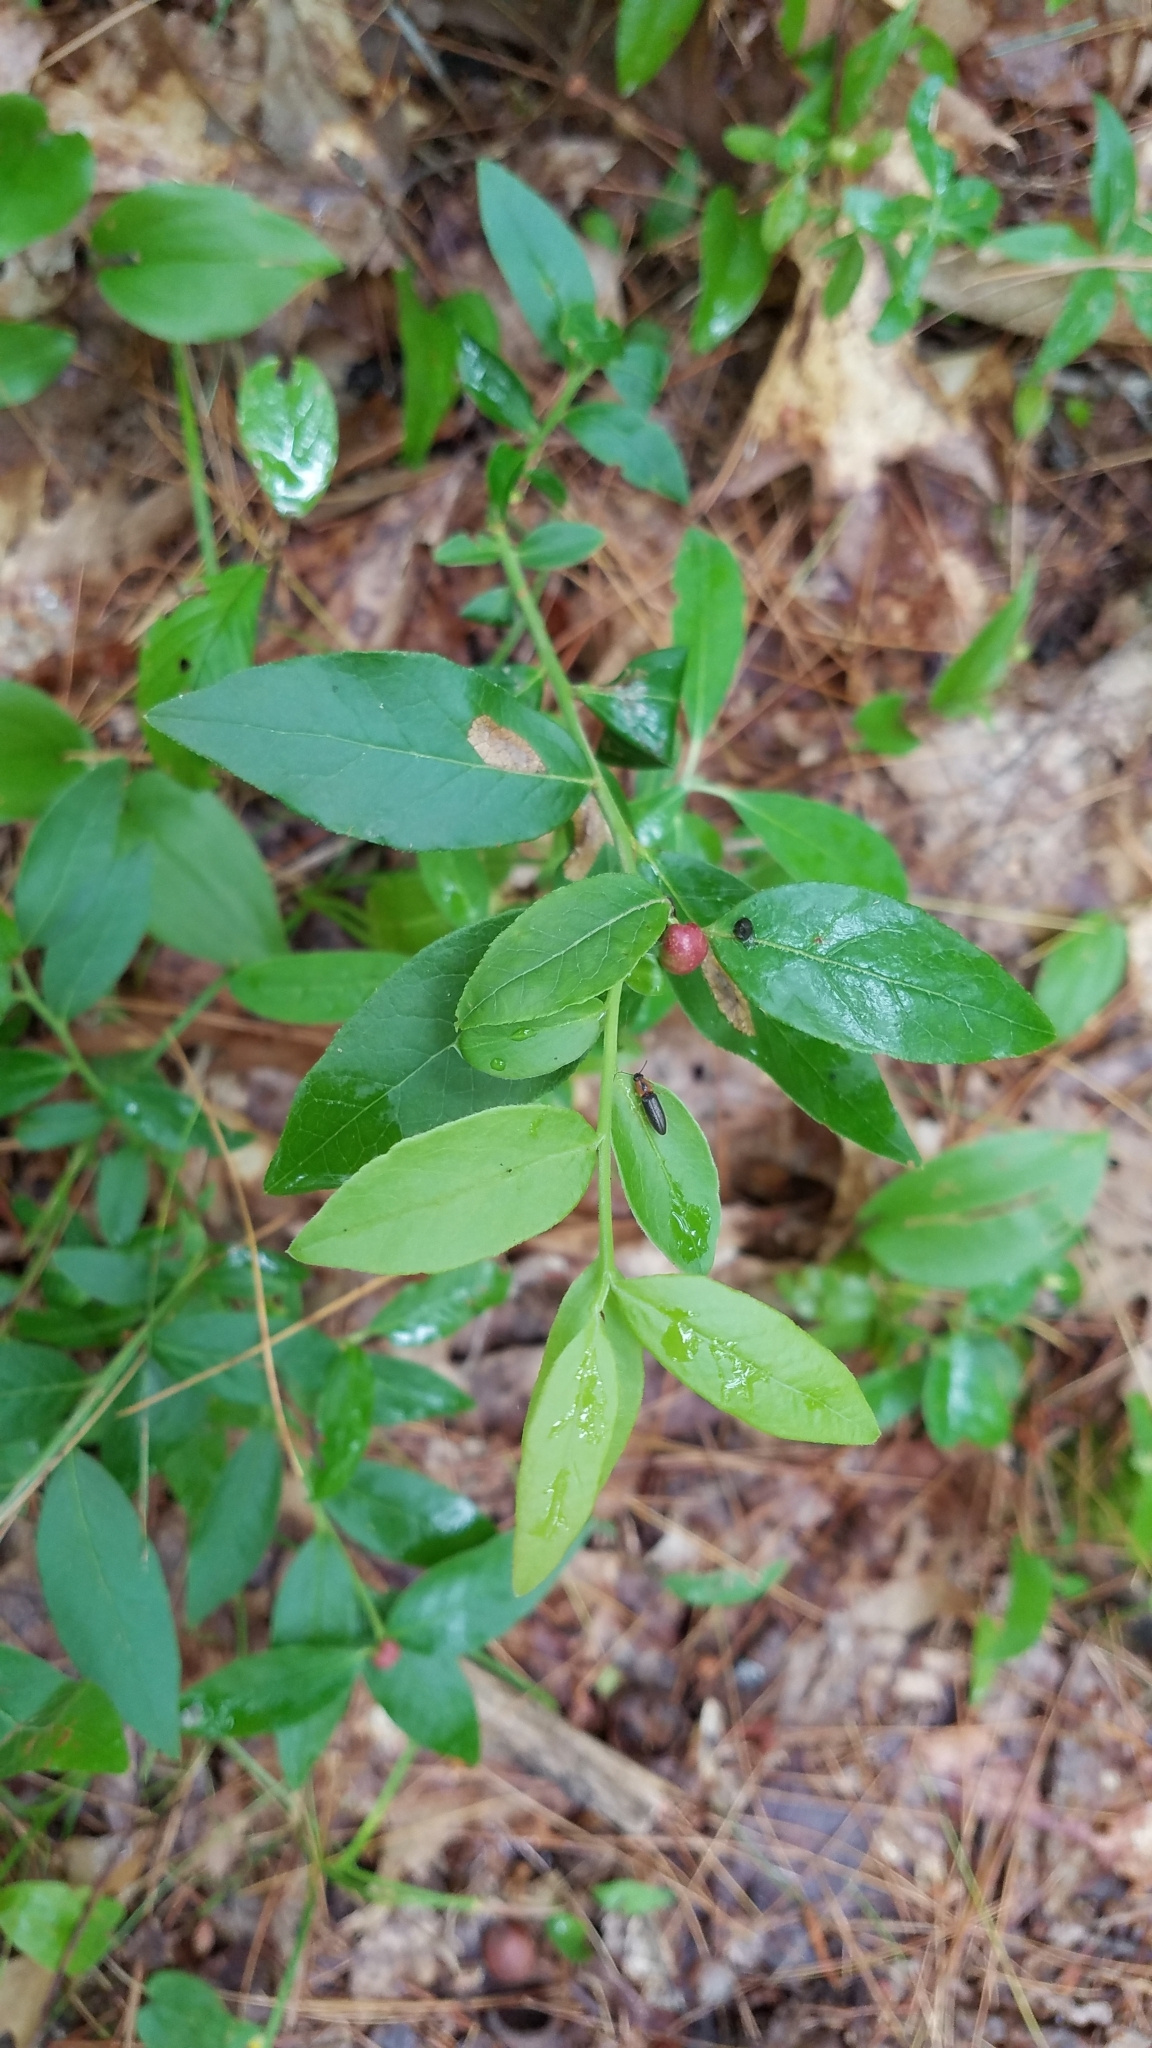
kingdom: Plantae
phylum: Tracheophyta
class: Magnoliopsida
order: Ericales
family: Ericaceae
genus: Kalmia
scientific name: Kalmia angustifolia
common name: Sheep-laurel
